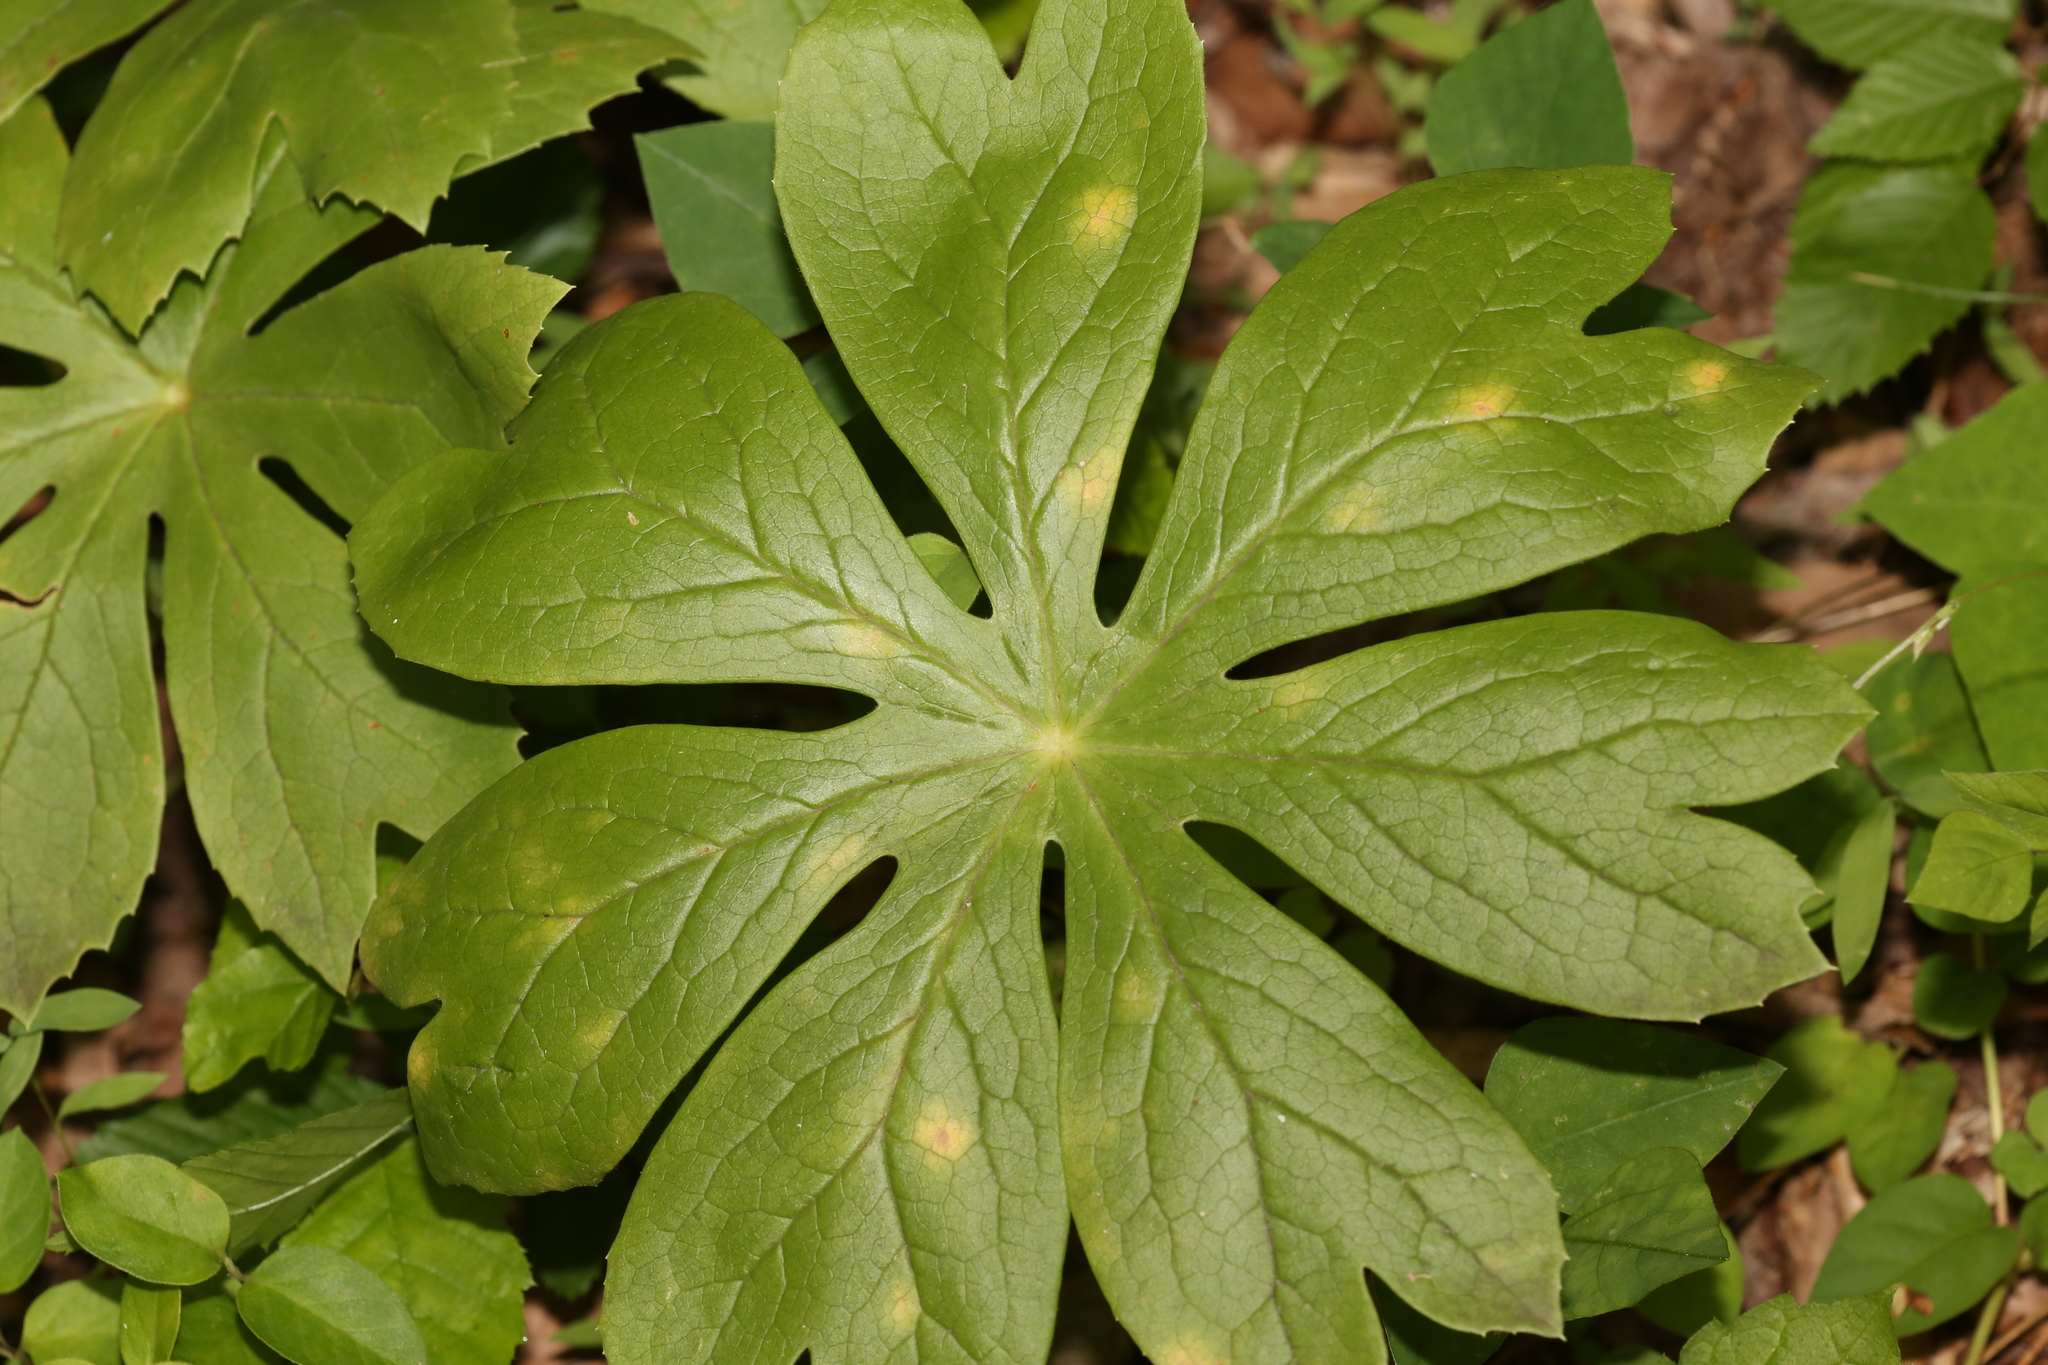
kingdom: Plantae
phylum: Tracheophyta
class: Magnoliopsida
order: Ranunculales
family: Berberidaceae
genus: Podophyllum
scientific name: Podophyllum peltatum
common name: Wild mandrake
